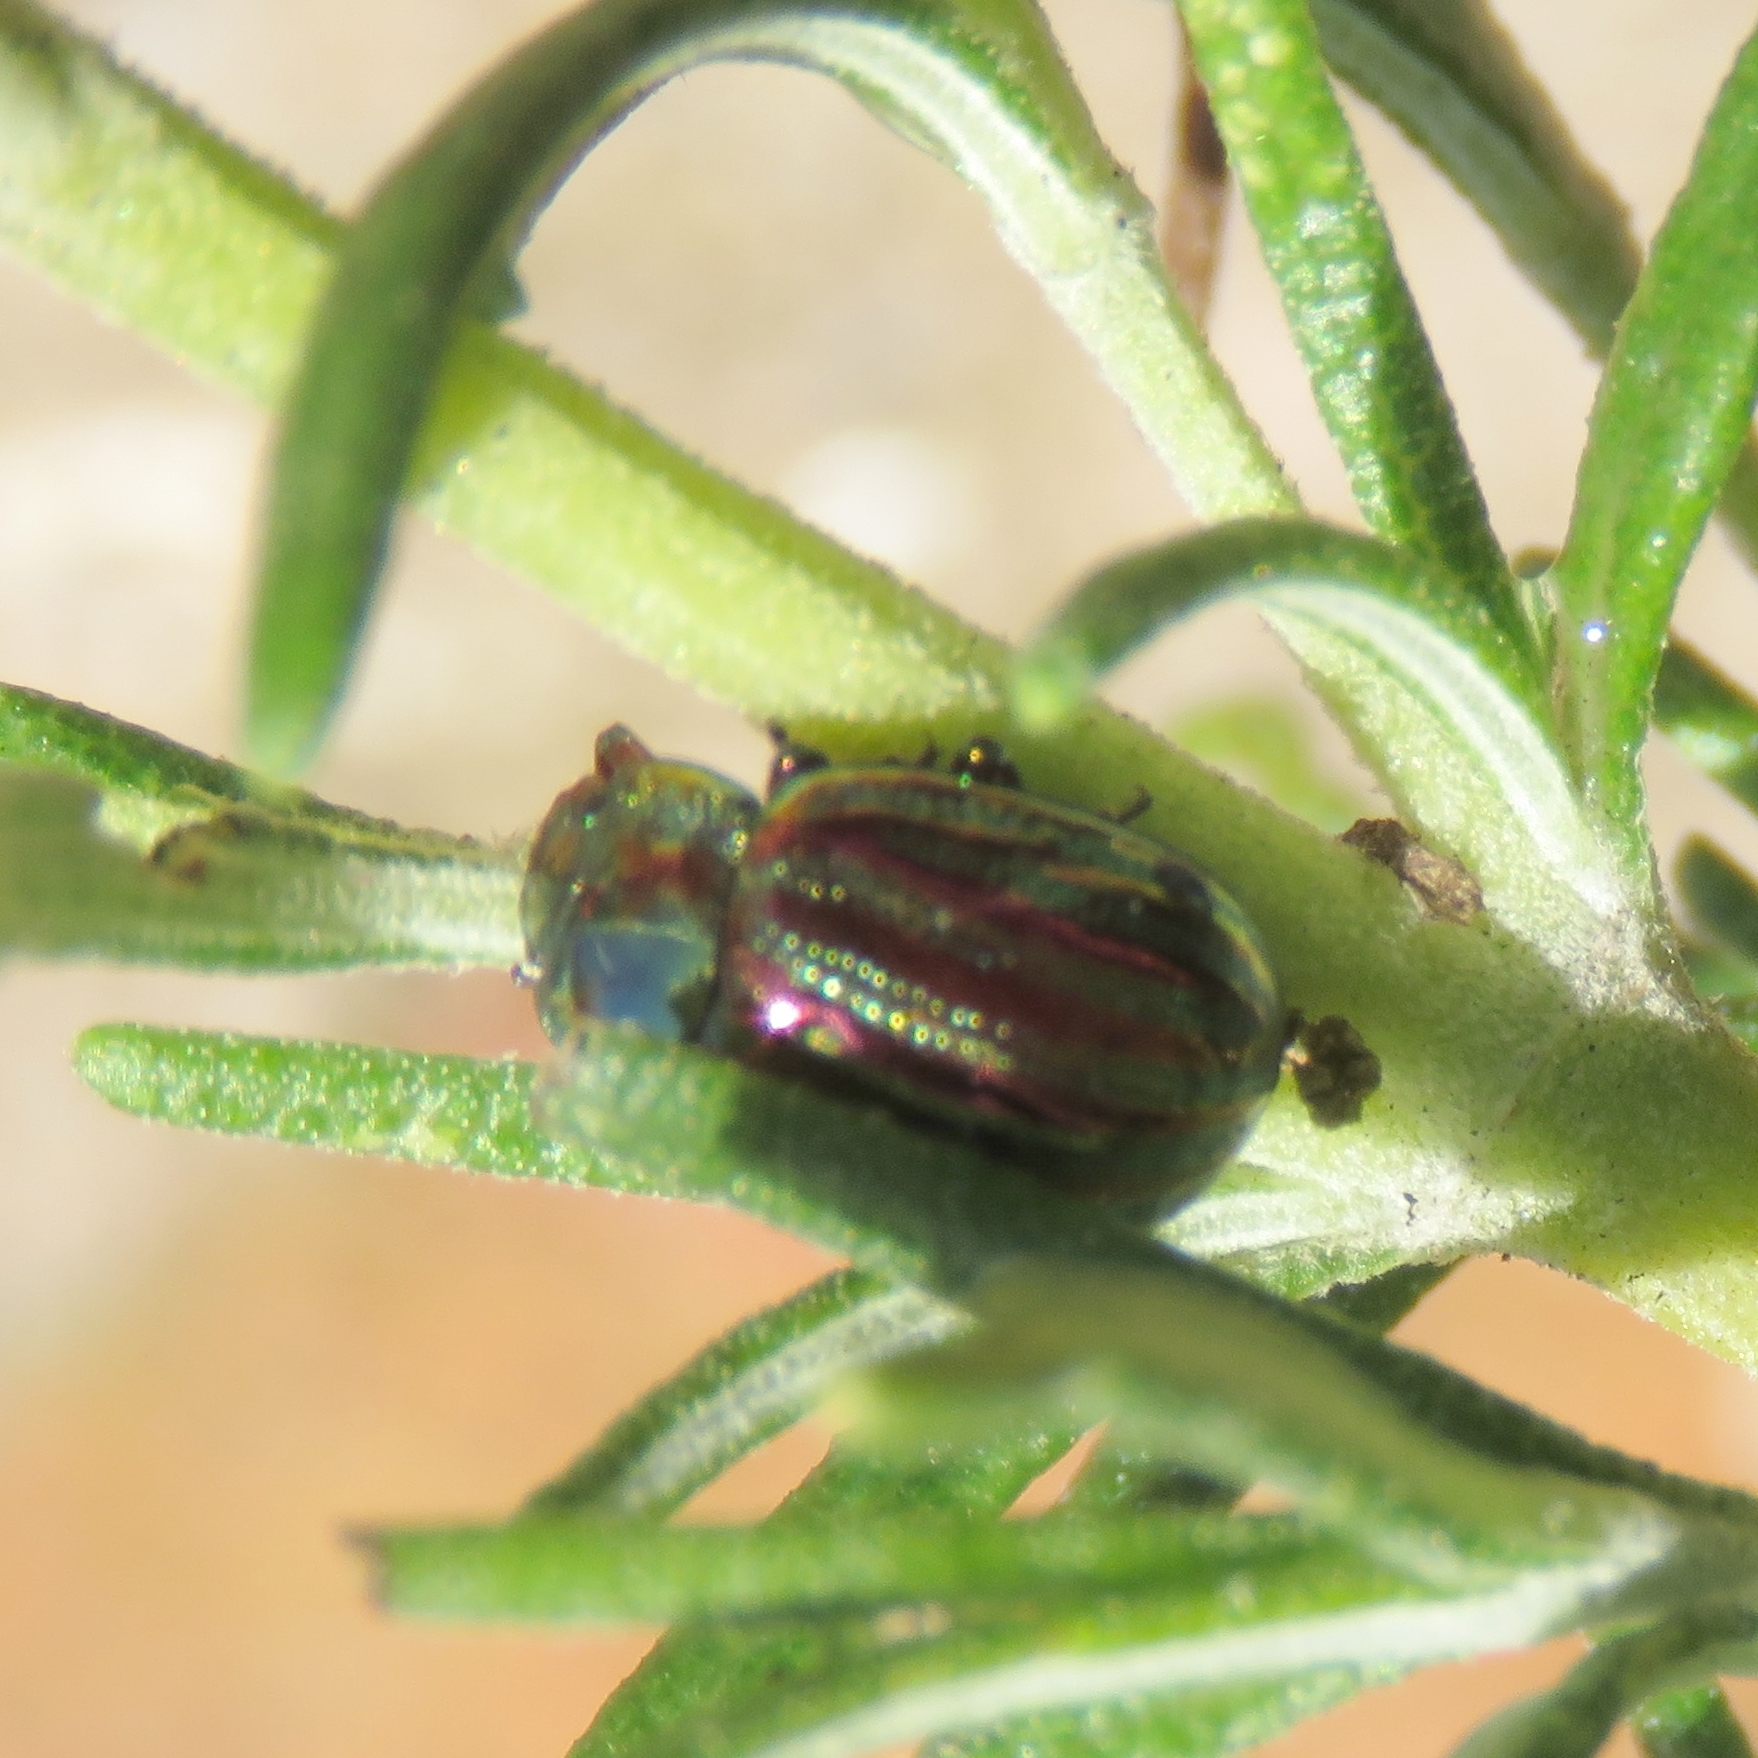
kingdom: Animalia
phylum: Arthropoda
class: Insecta
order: Coleoptera
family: Chrysomelidae
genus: Chrysolina
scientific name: Chrysolina americana
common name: Rosemary beetle
